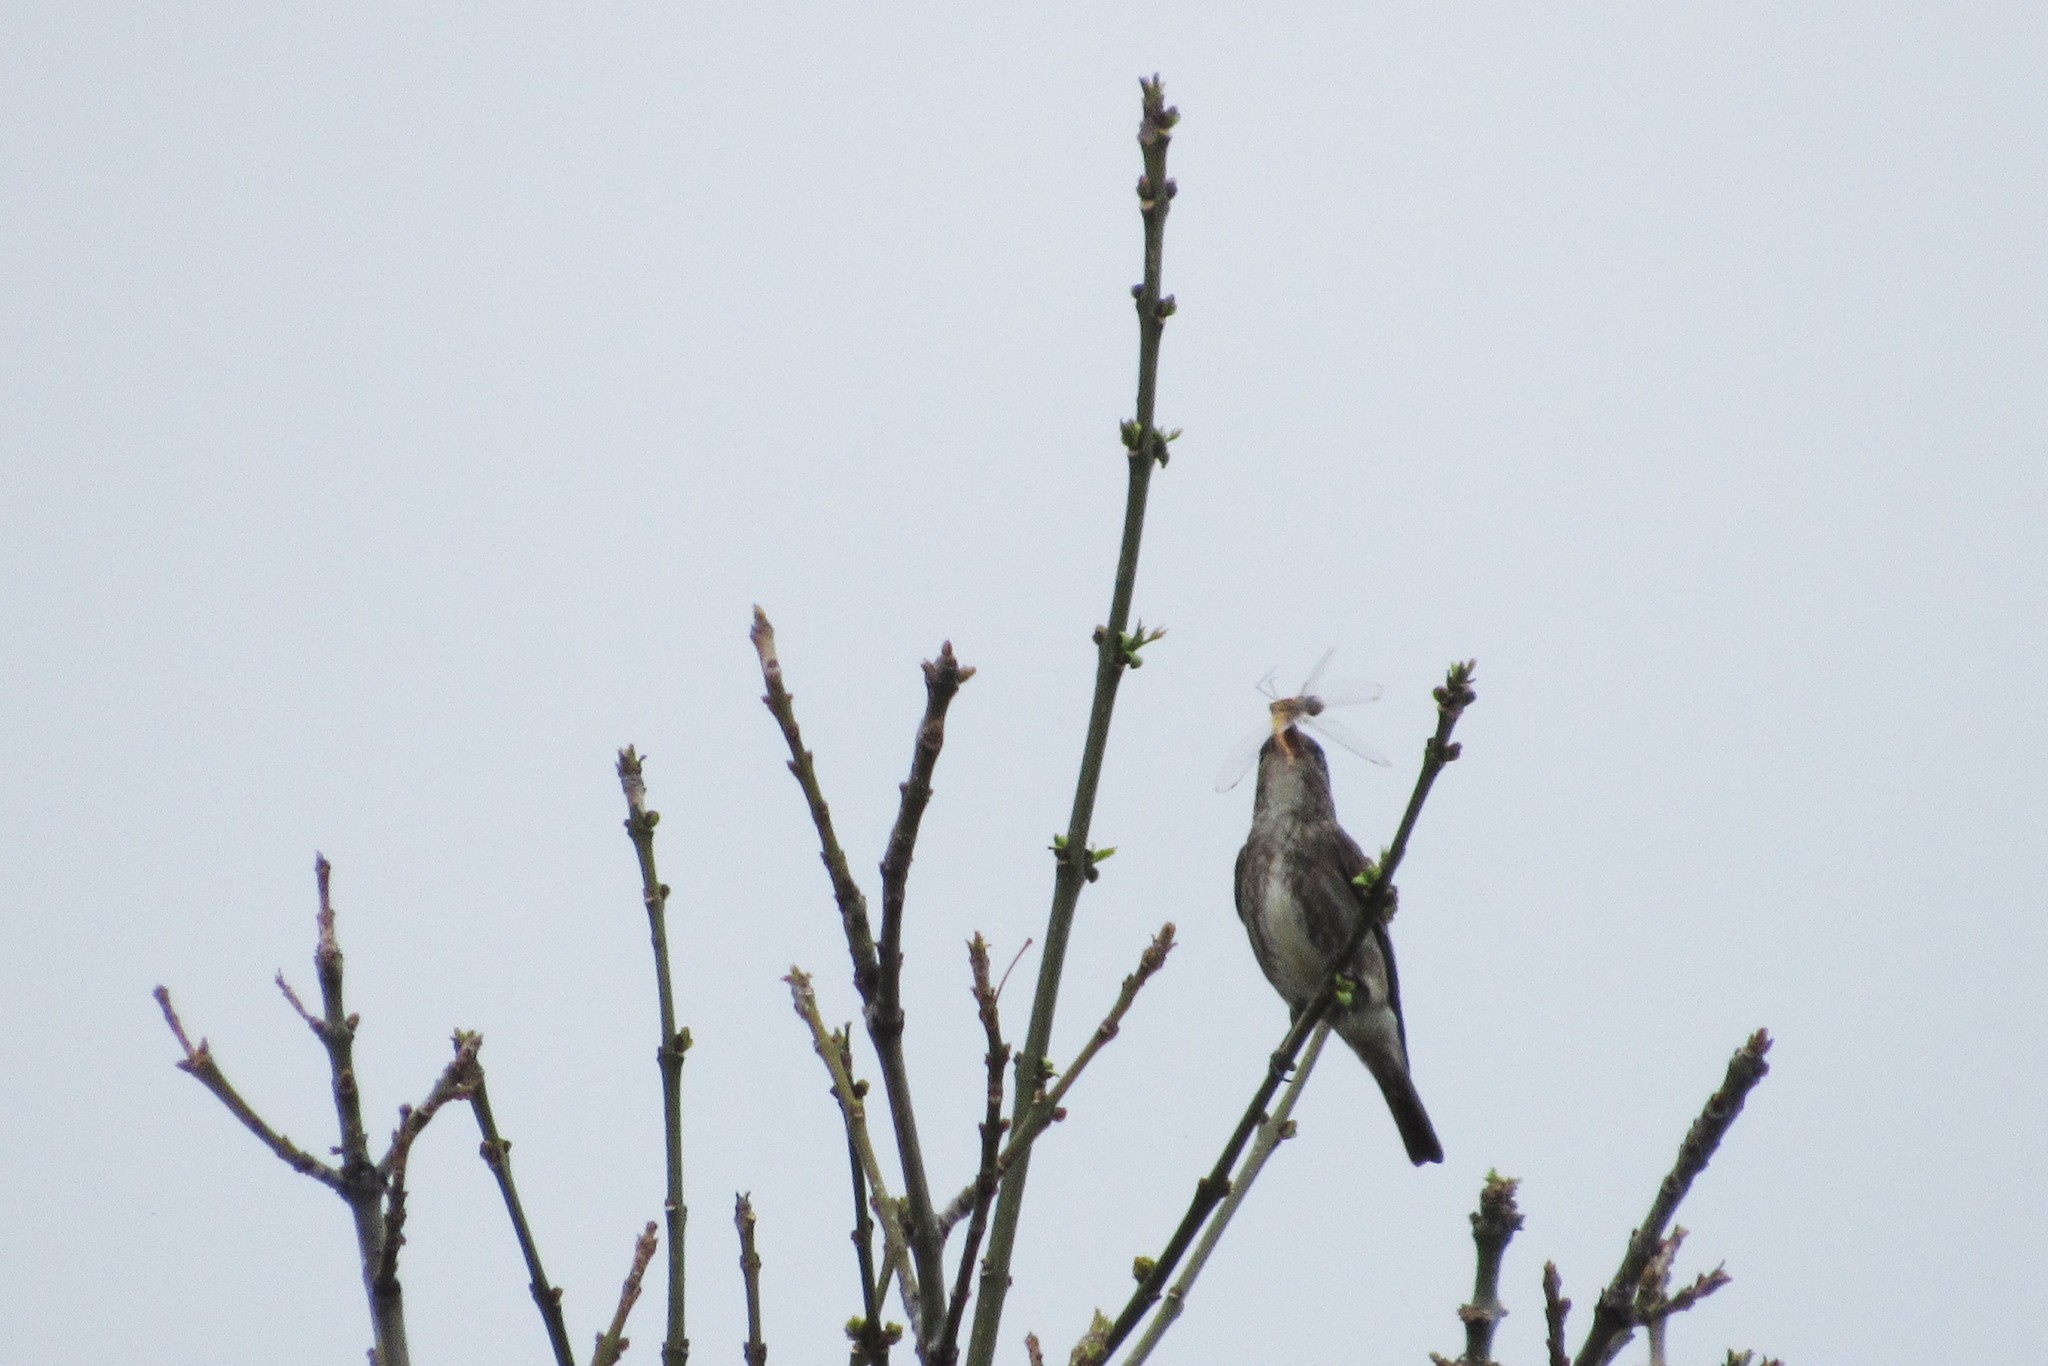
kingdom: Animalia
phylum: Chordata
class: Aves
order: Passeriformes
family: Tyrannidae
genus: Contopus
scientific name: Contopus cooperi
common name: Olive-sided flycatcher
